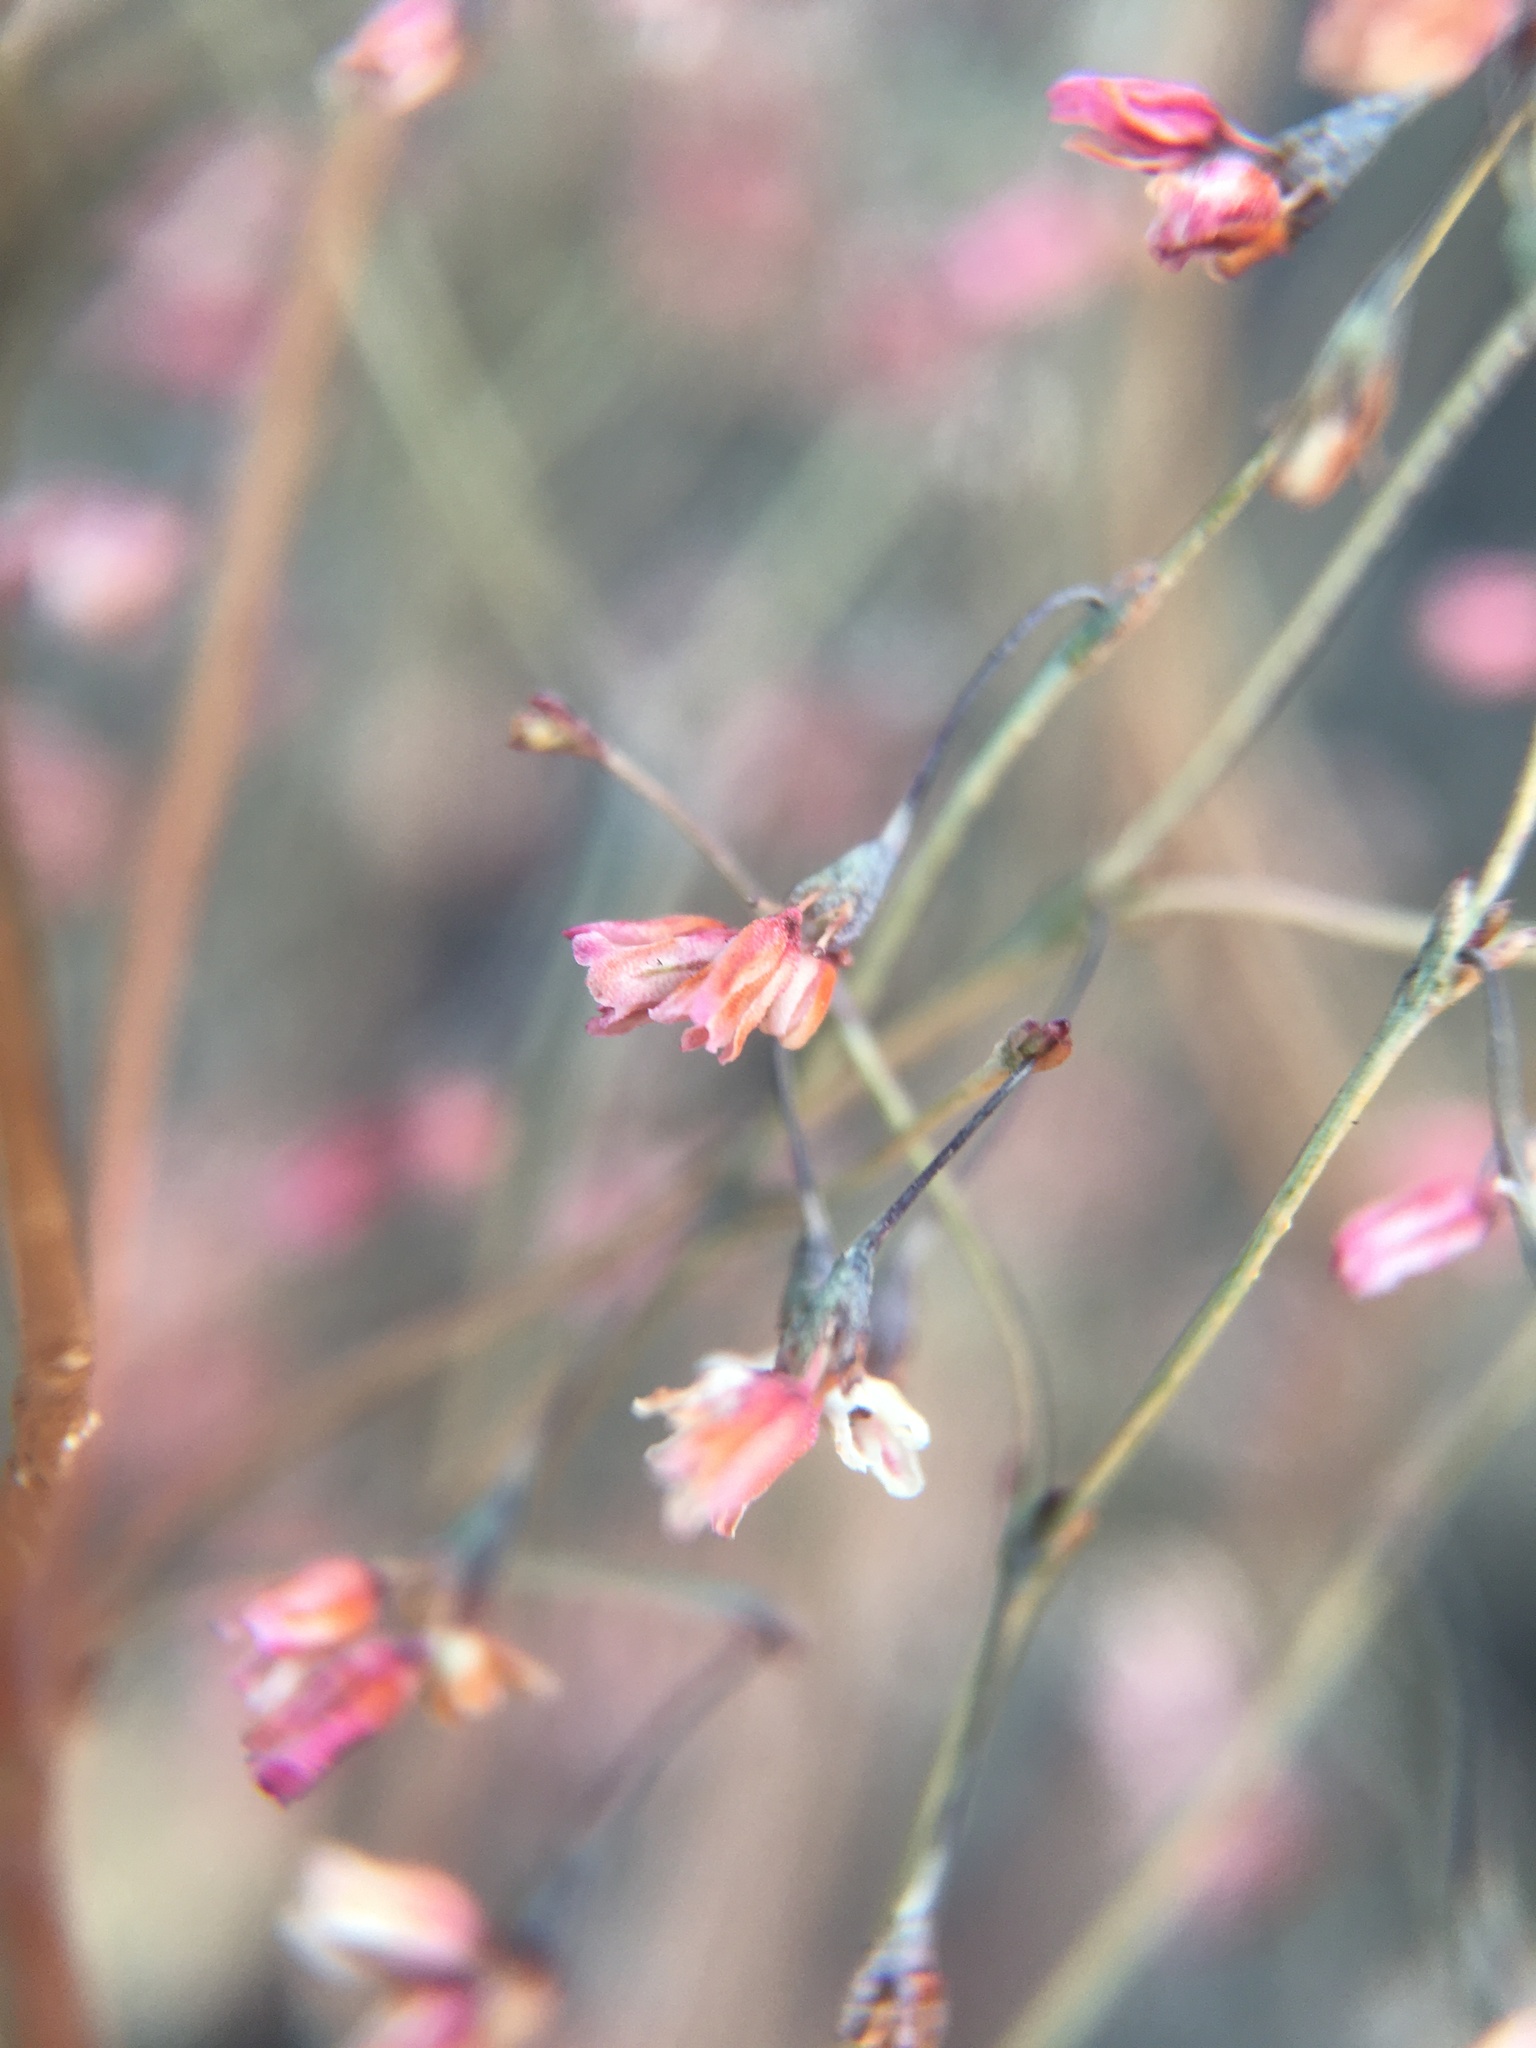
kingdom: Plantae
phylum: Tracheophyta
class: Magnoliopsida
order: Caryophyllales
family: Polygonaceae
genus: Eriogonum
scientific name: Eriogonum esmeraldense
